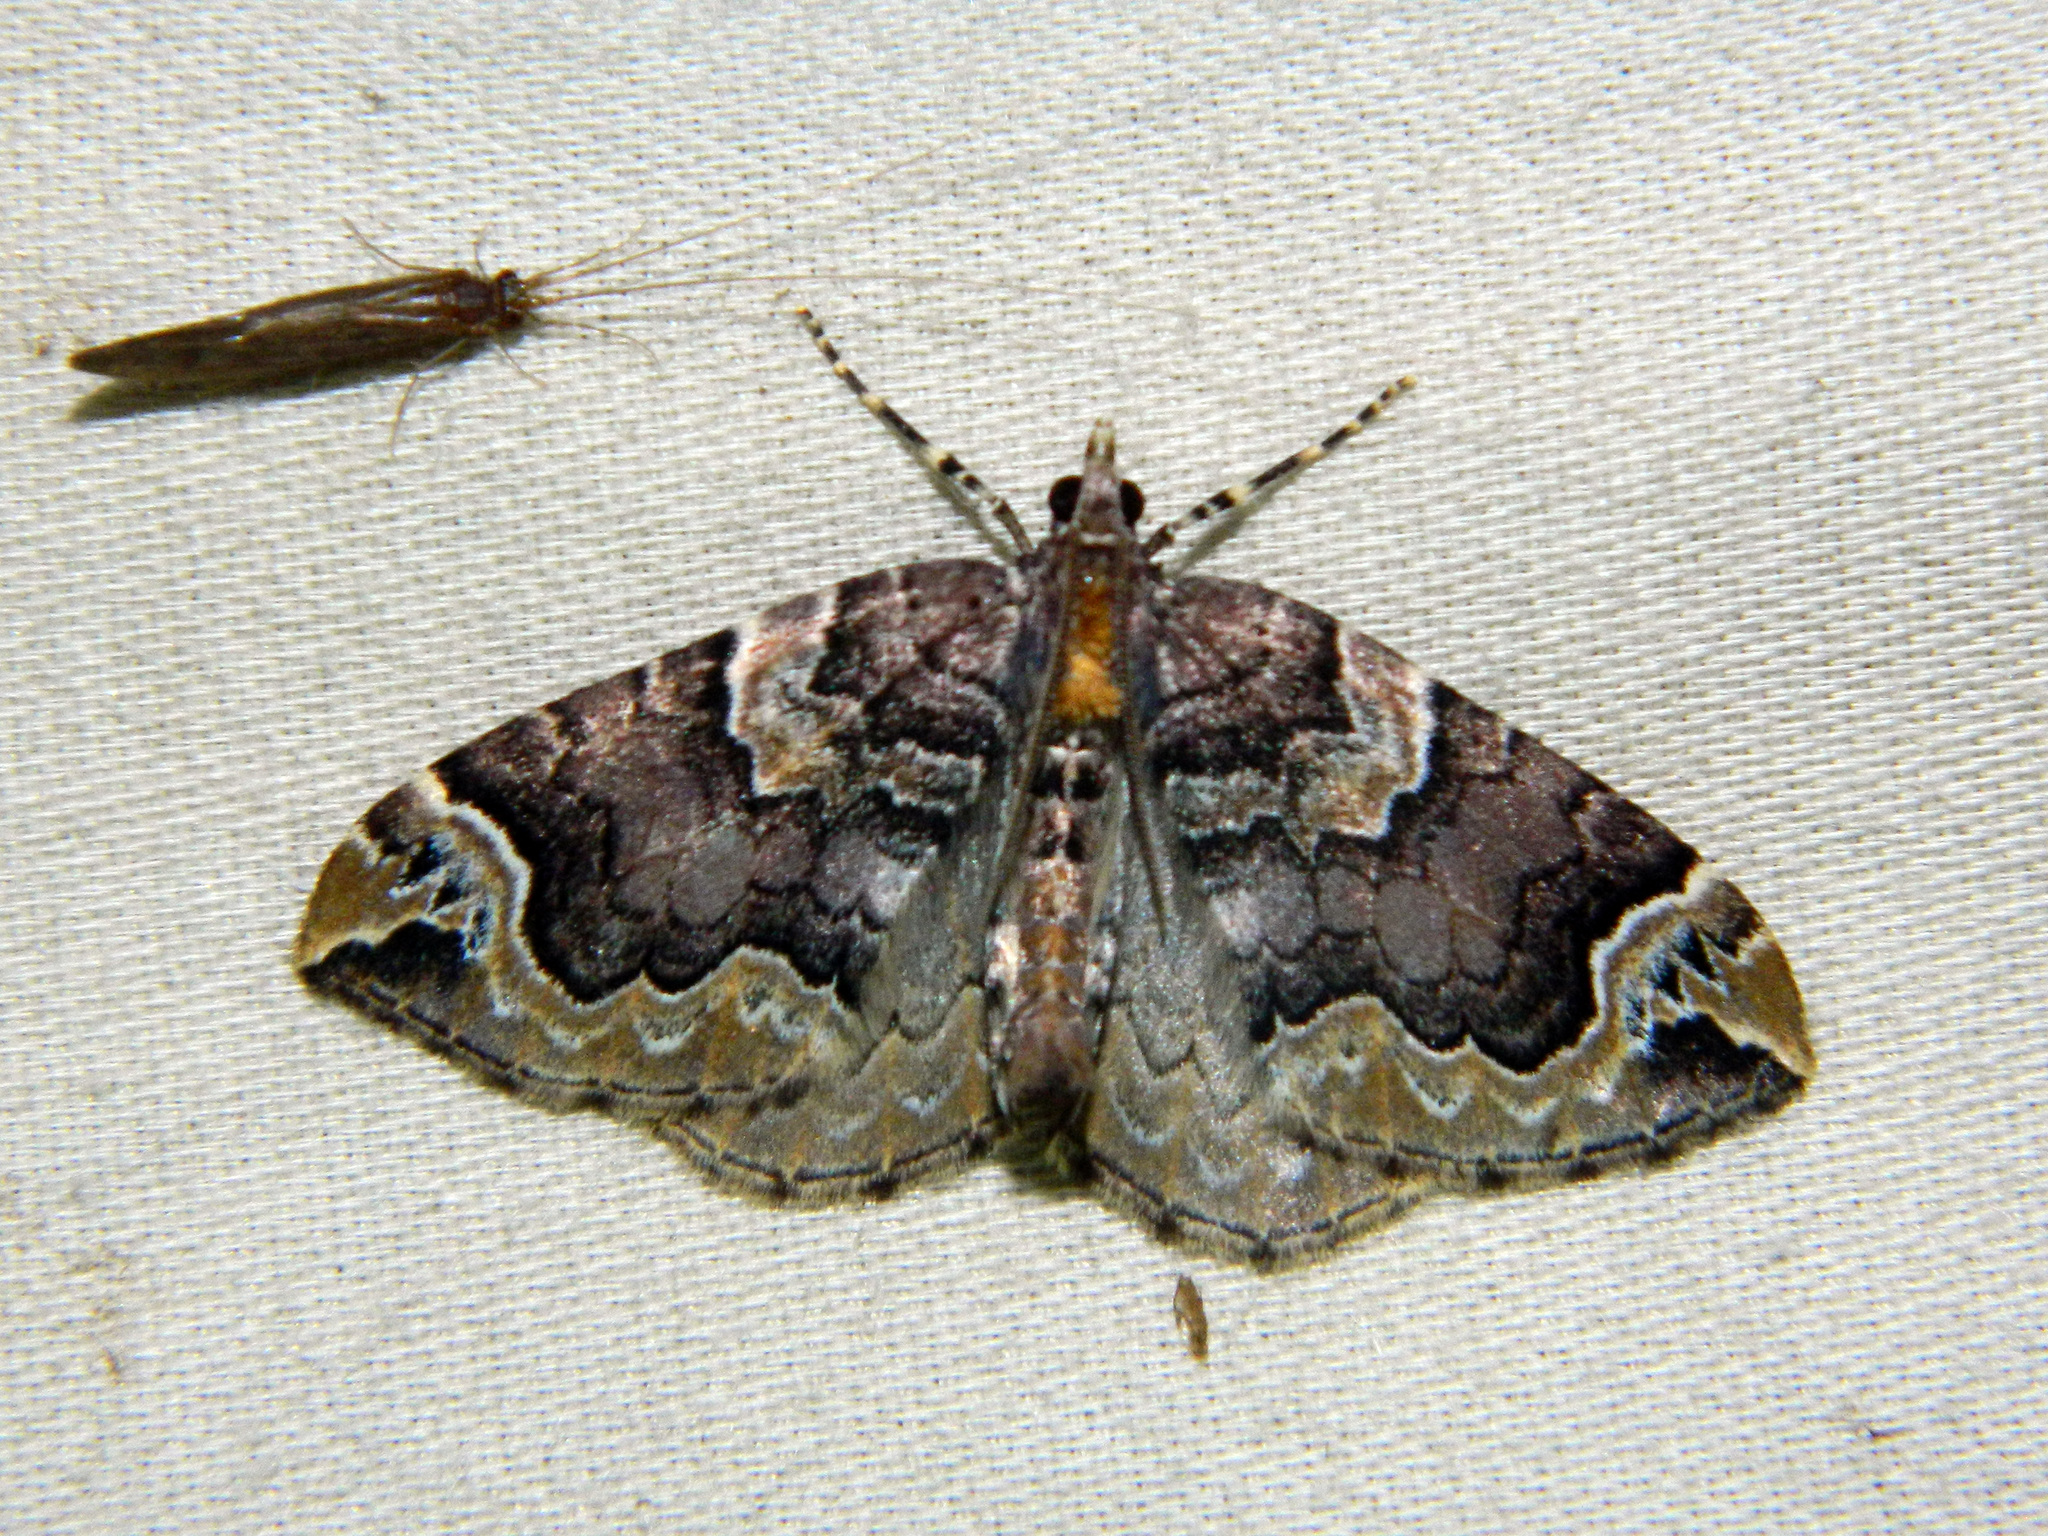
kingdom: Animalia
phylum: Arthropoda
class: Insecta
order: Lepidoptera
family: Geometridae
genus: Eulithis
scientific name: Eulithis serrataria
